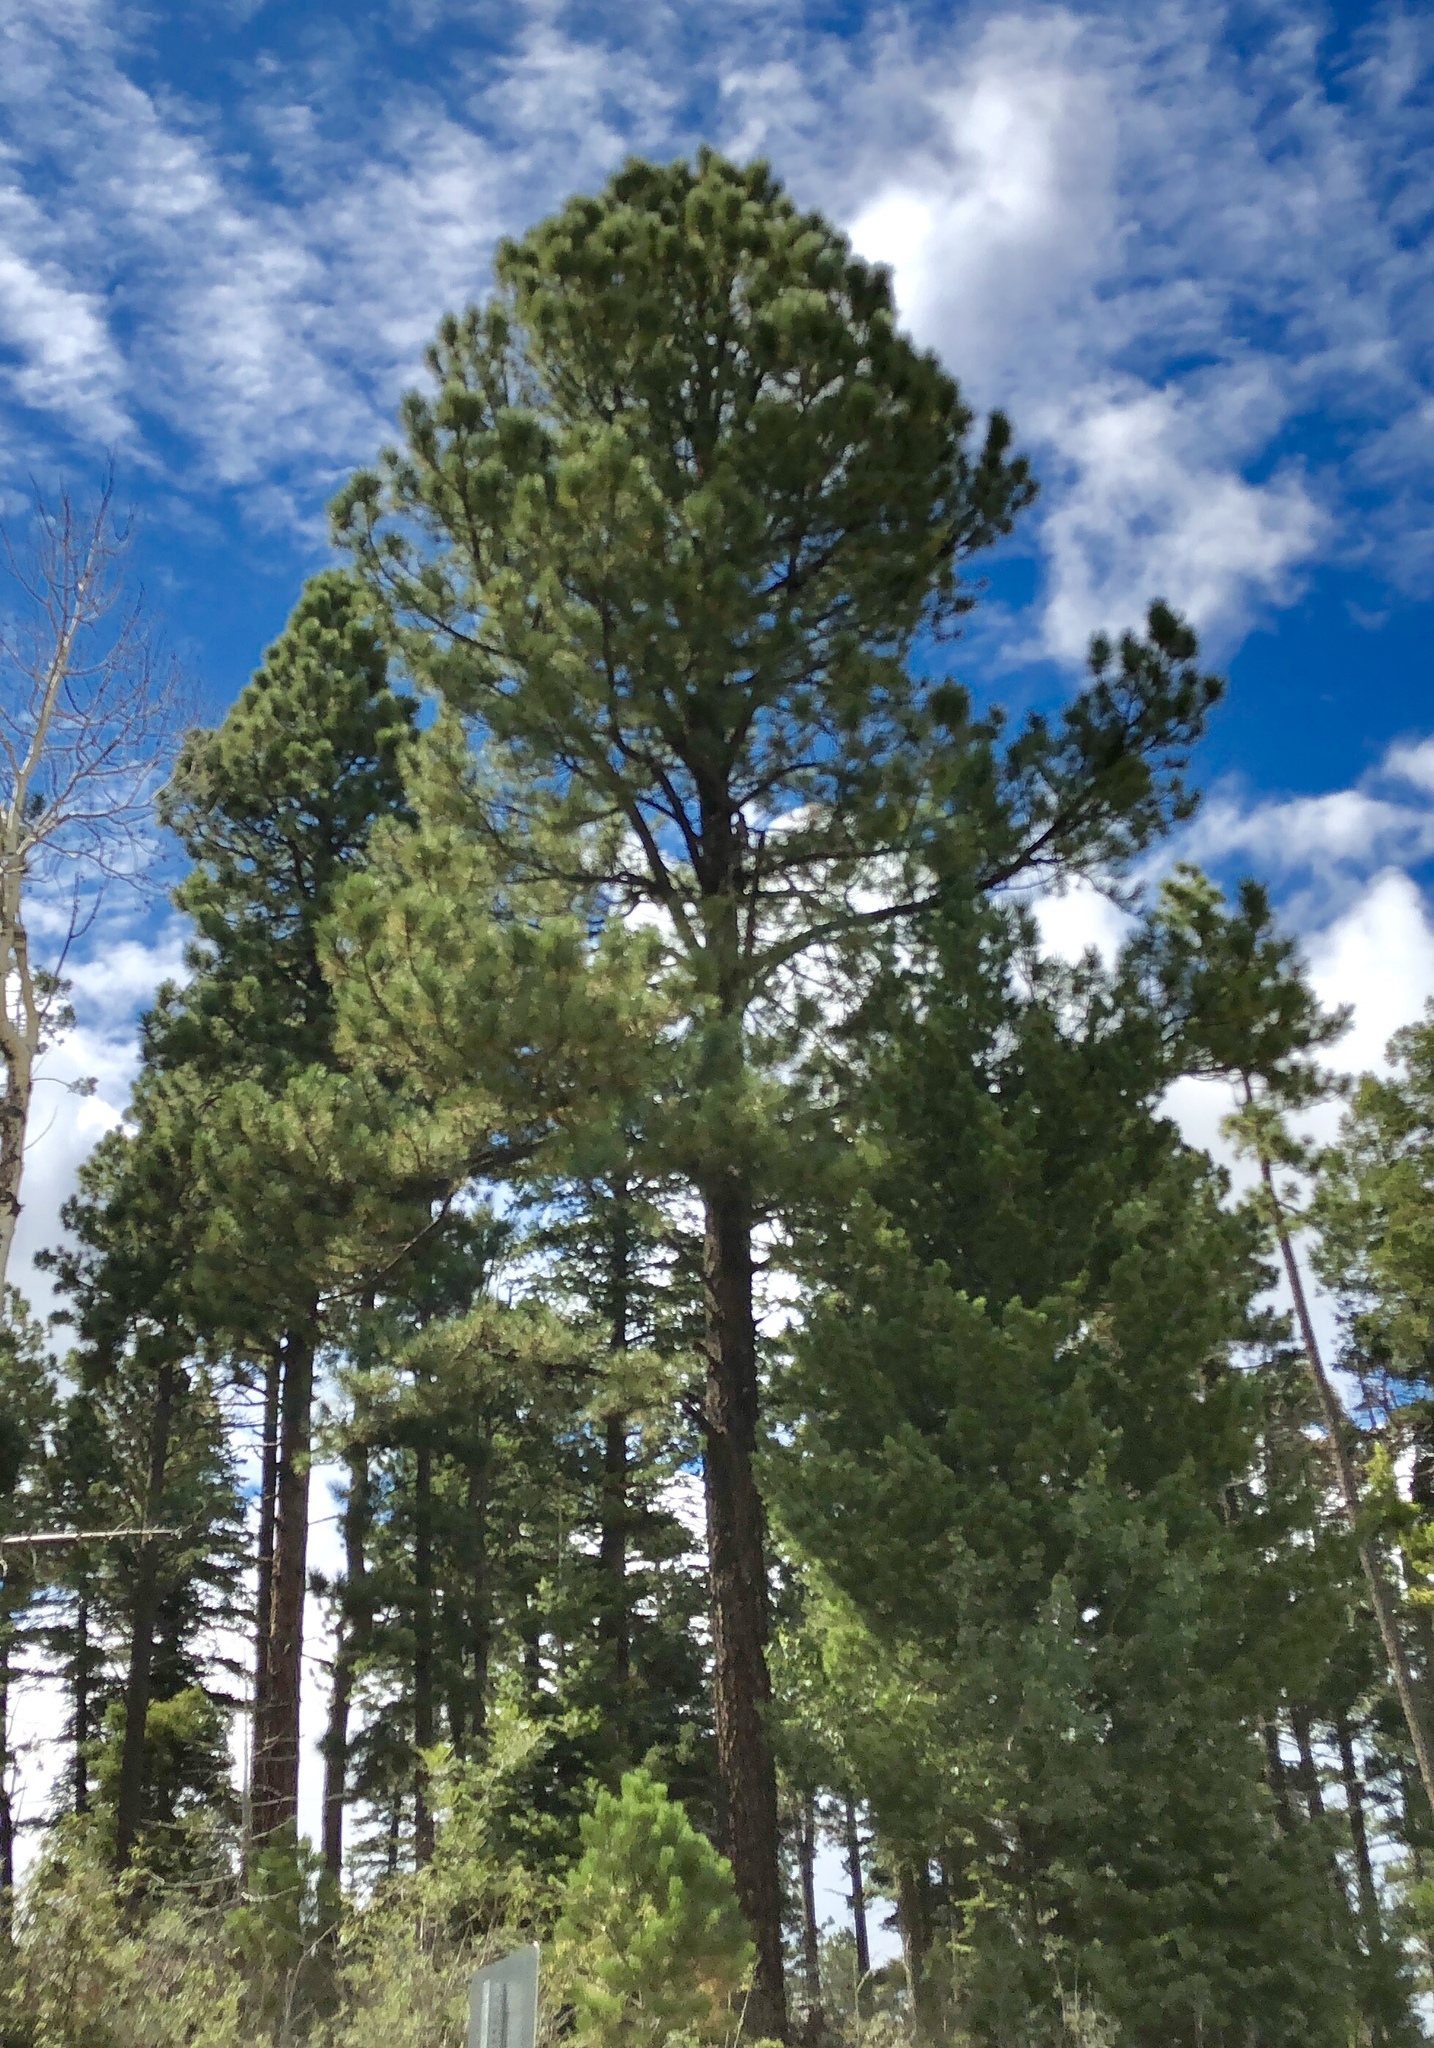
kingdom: Plantae
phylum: Tracheophyta
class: Pinopsida
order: Pinales
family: Pinaceae
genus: Pinus
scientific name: Pinus ponderosa
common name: Western yellow-pine
